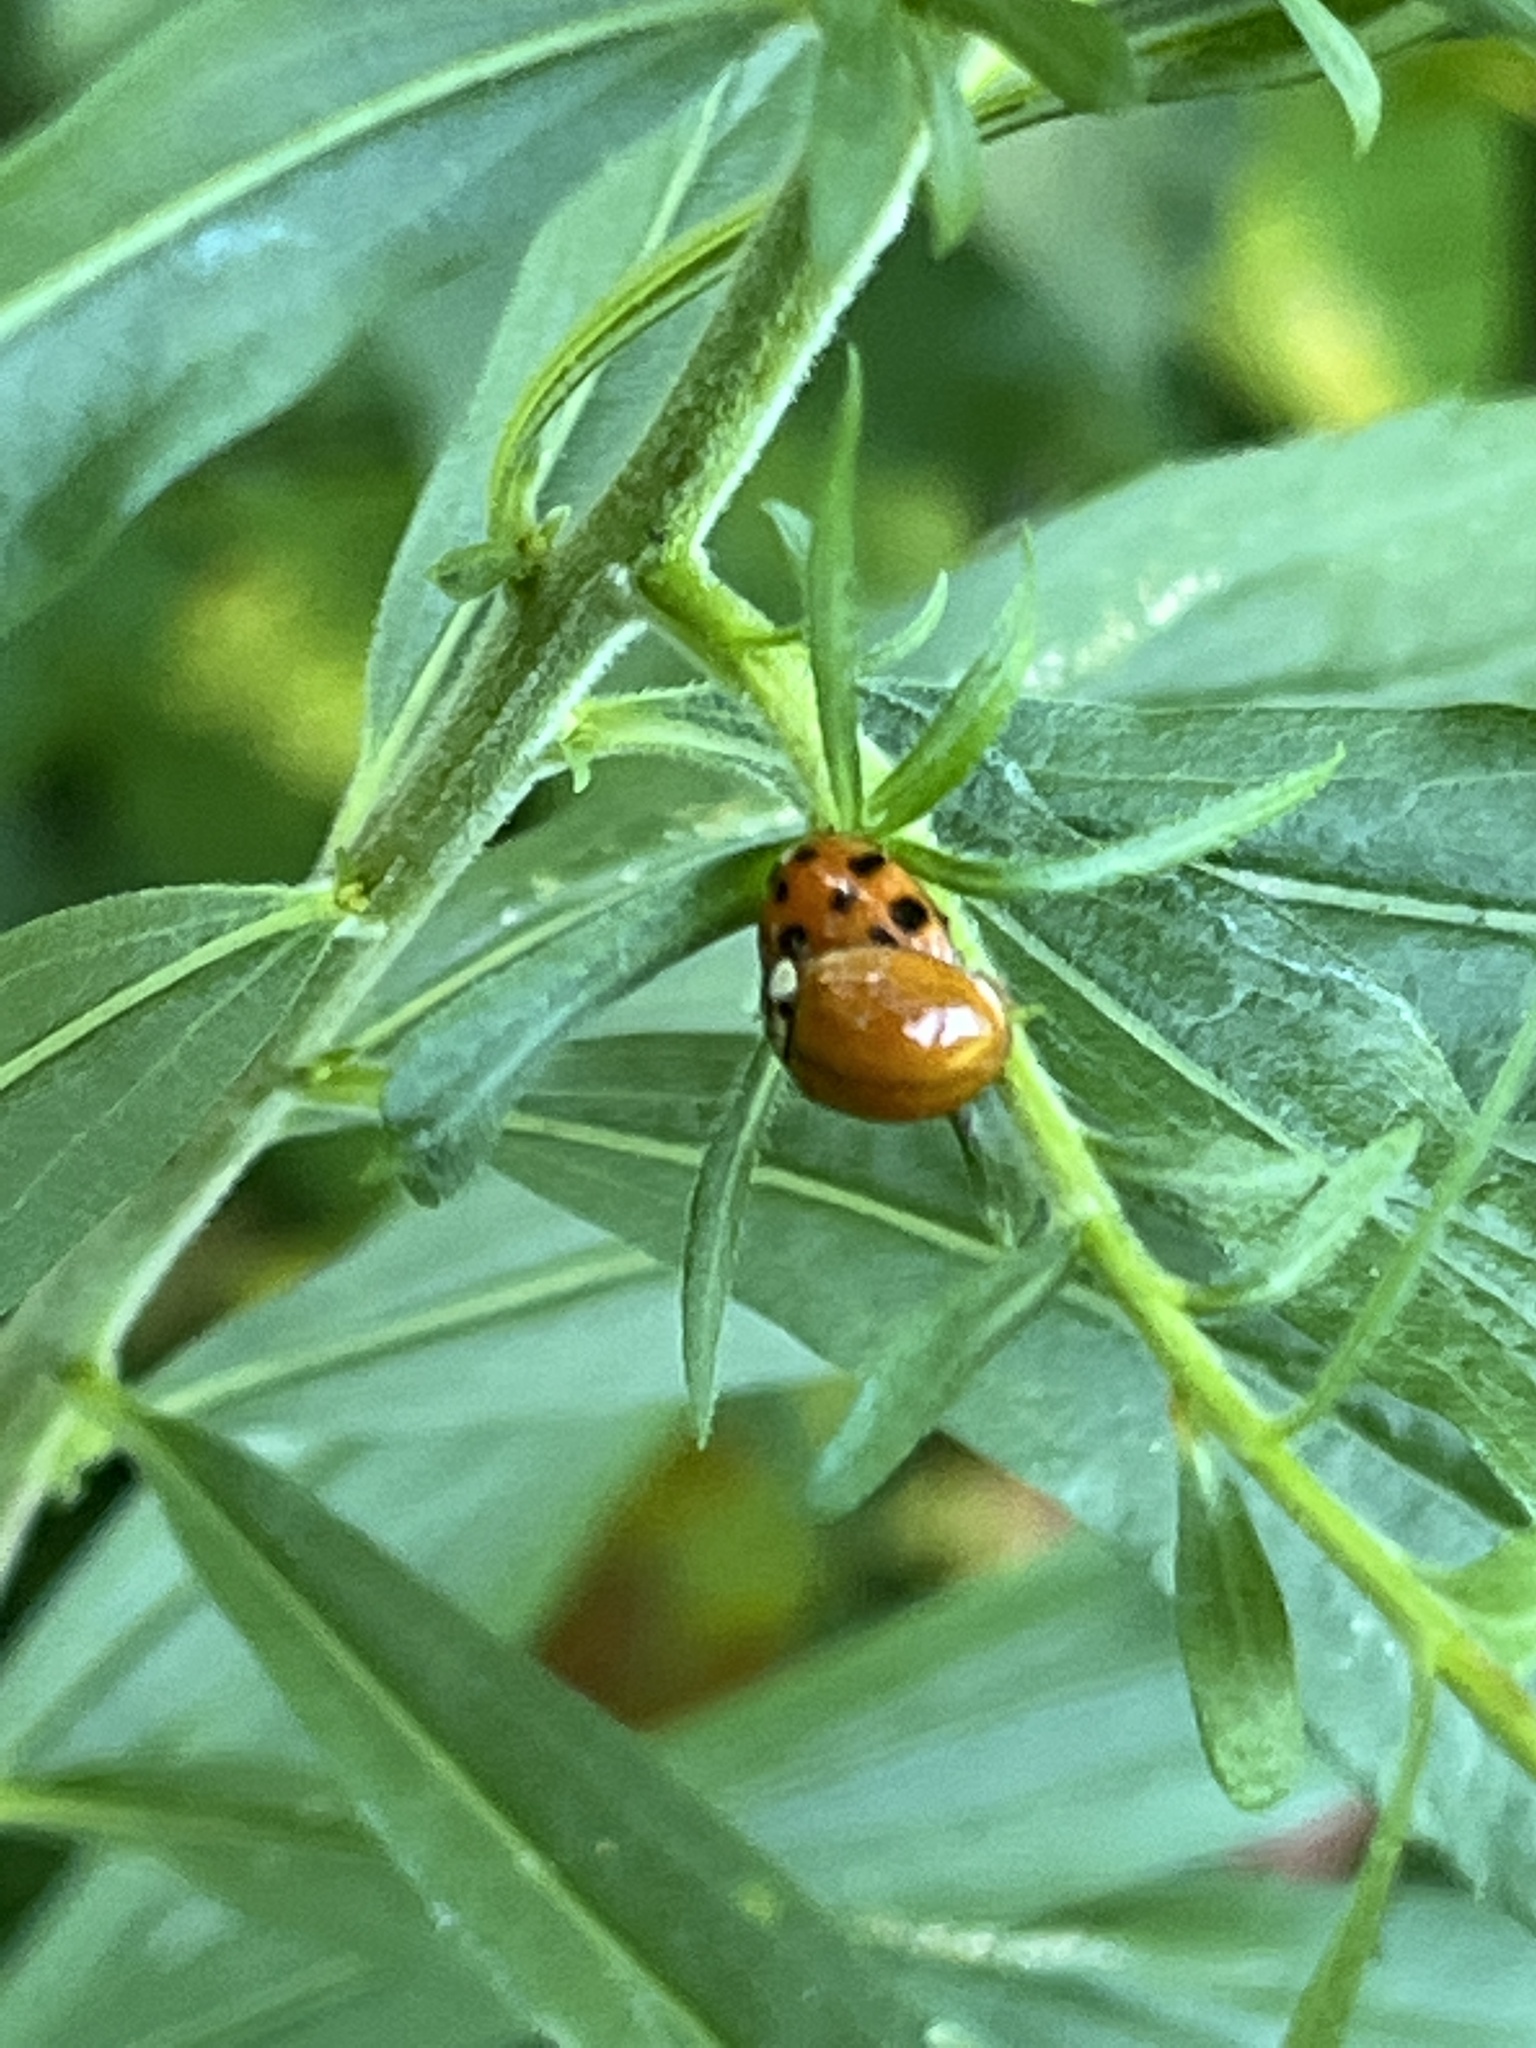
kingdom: Animalia
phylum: Arthropoda
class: Insecta
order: Coleoptera
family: Coccinellidae
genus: Harmonia
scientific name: Harmonia axyridis
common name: Harlequin ladybird
